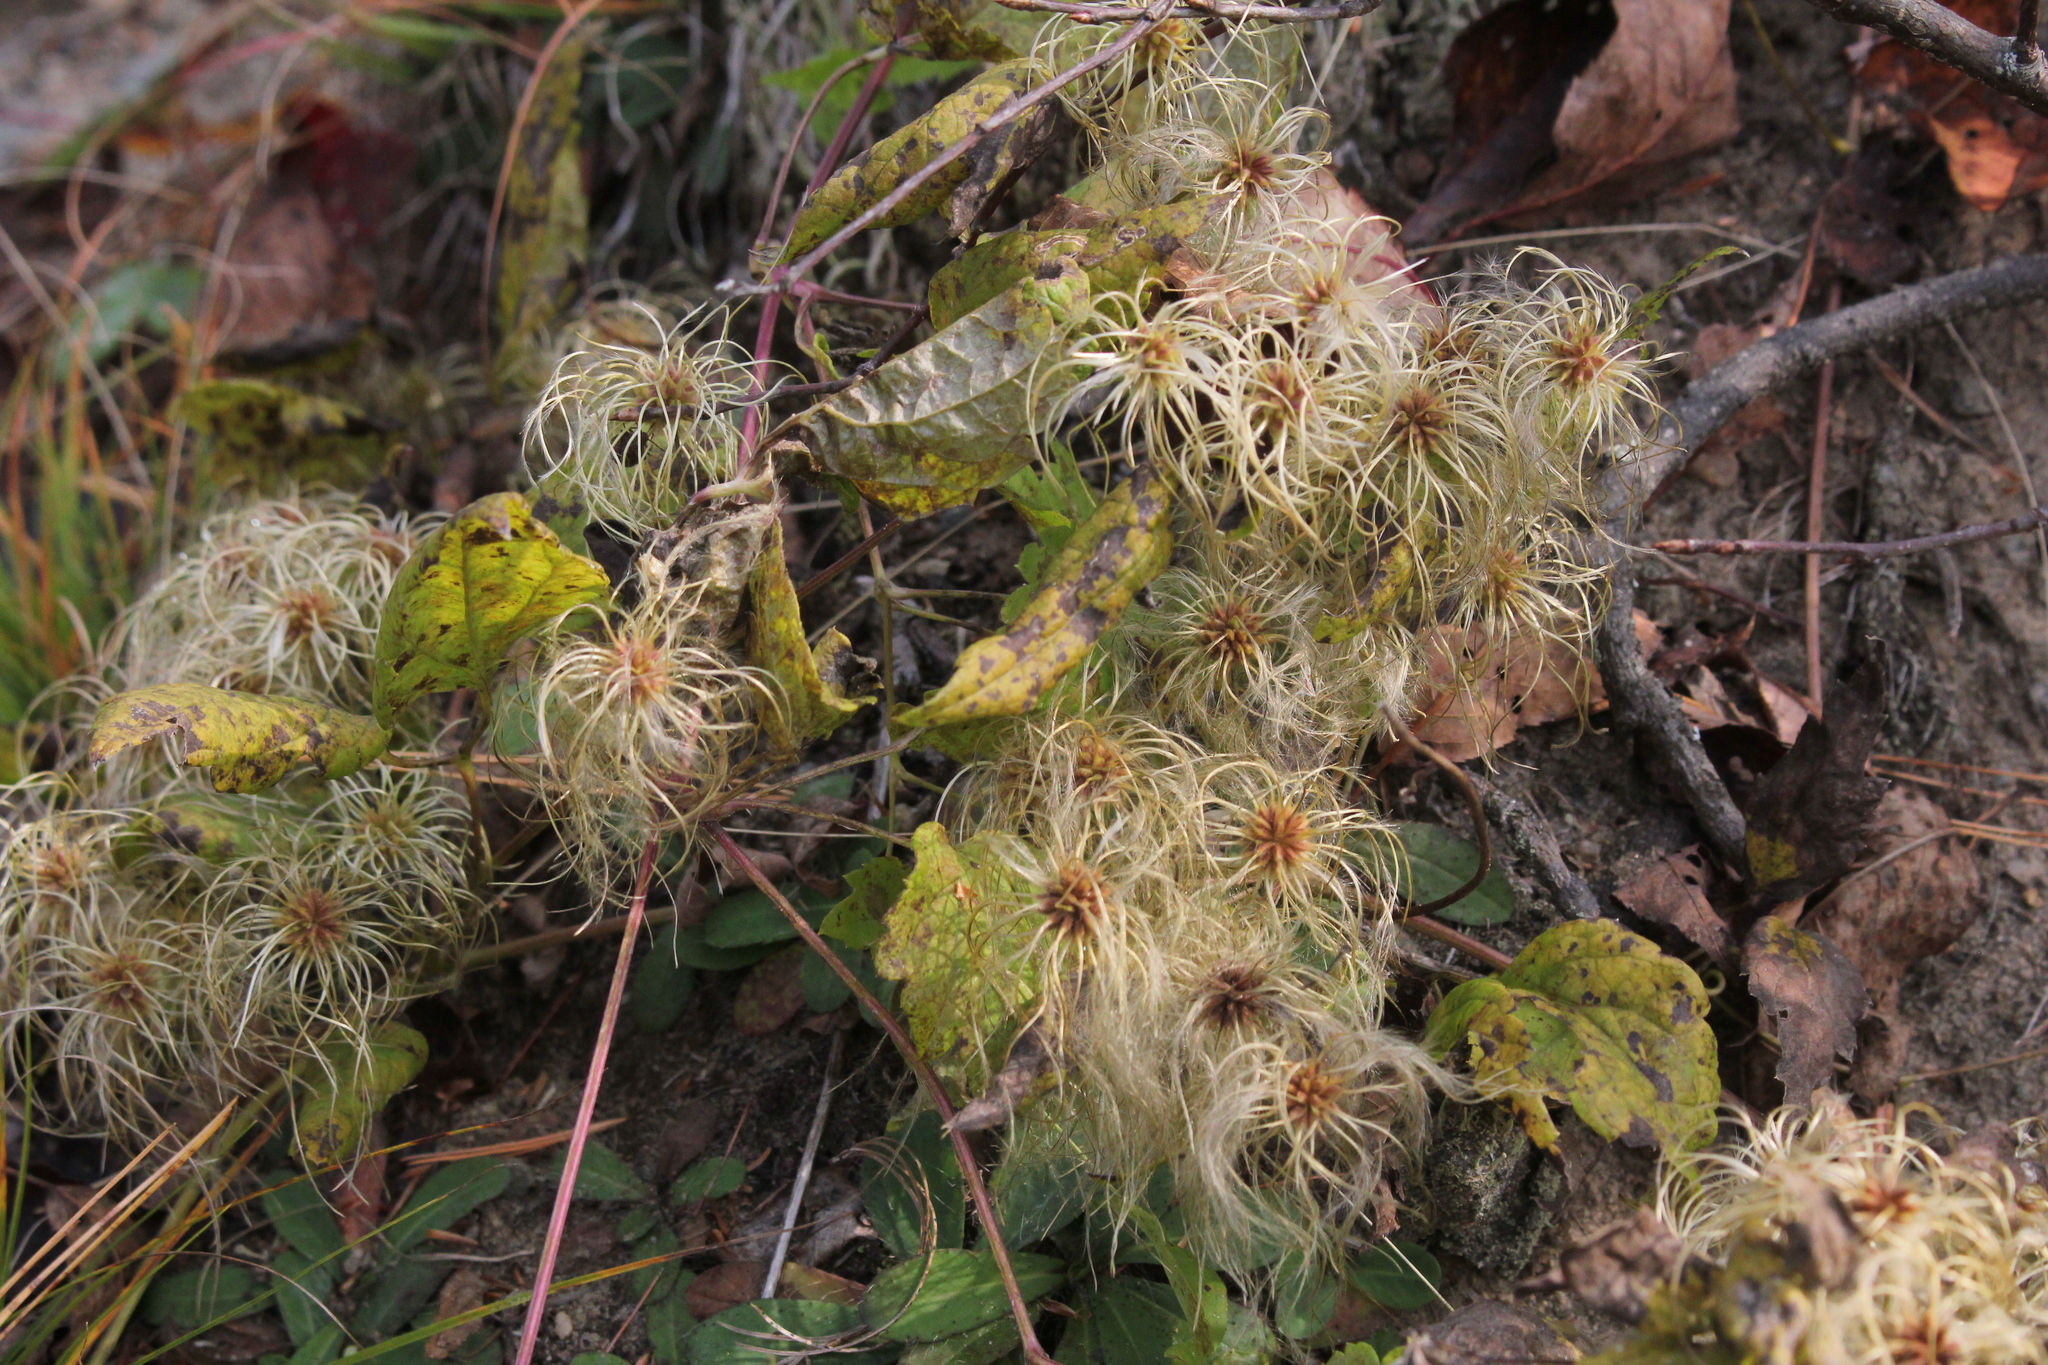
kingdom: Plantae
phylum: Tracheophyta
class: Magnoliopsida
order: Ranunculales
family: Ranunculaceae
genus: Clematis
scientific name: Clematis virginiana
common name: Virgin's-bower
